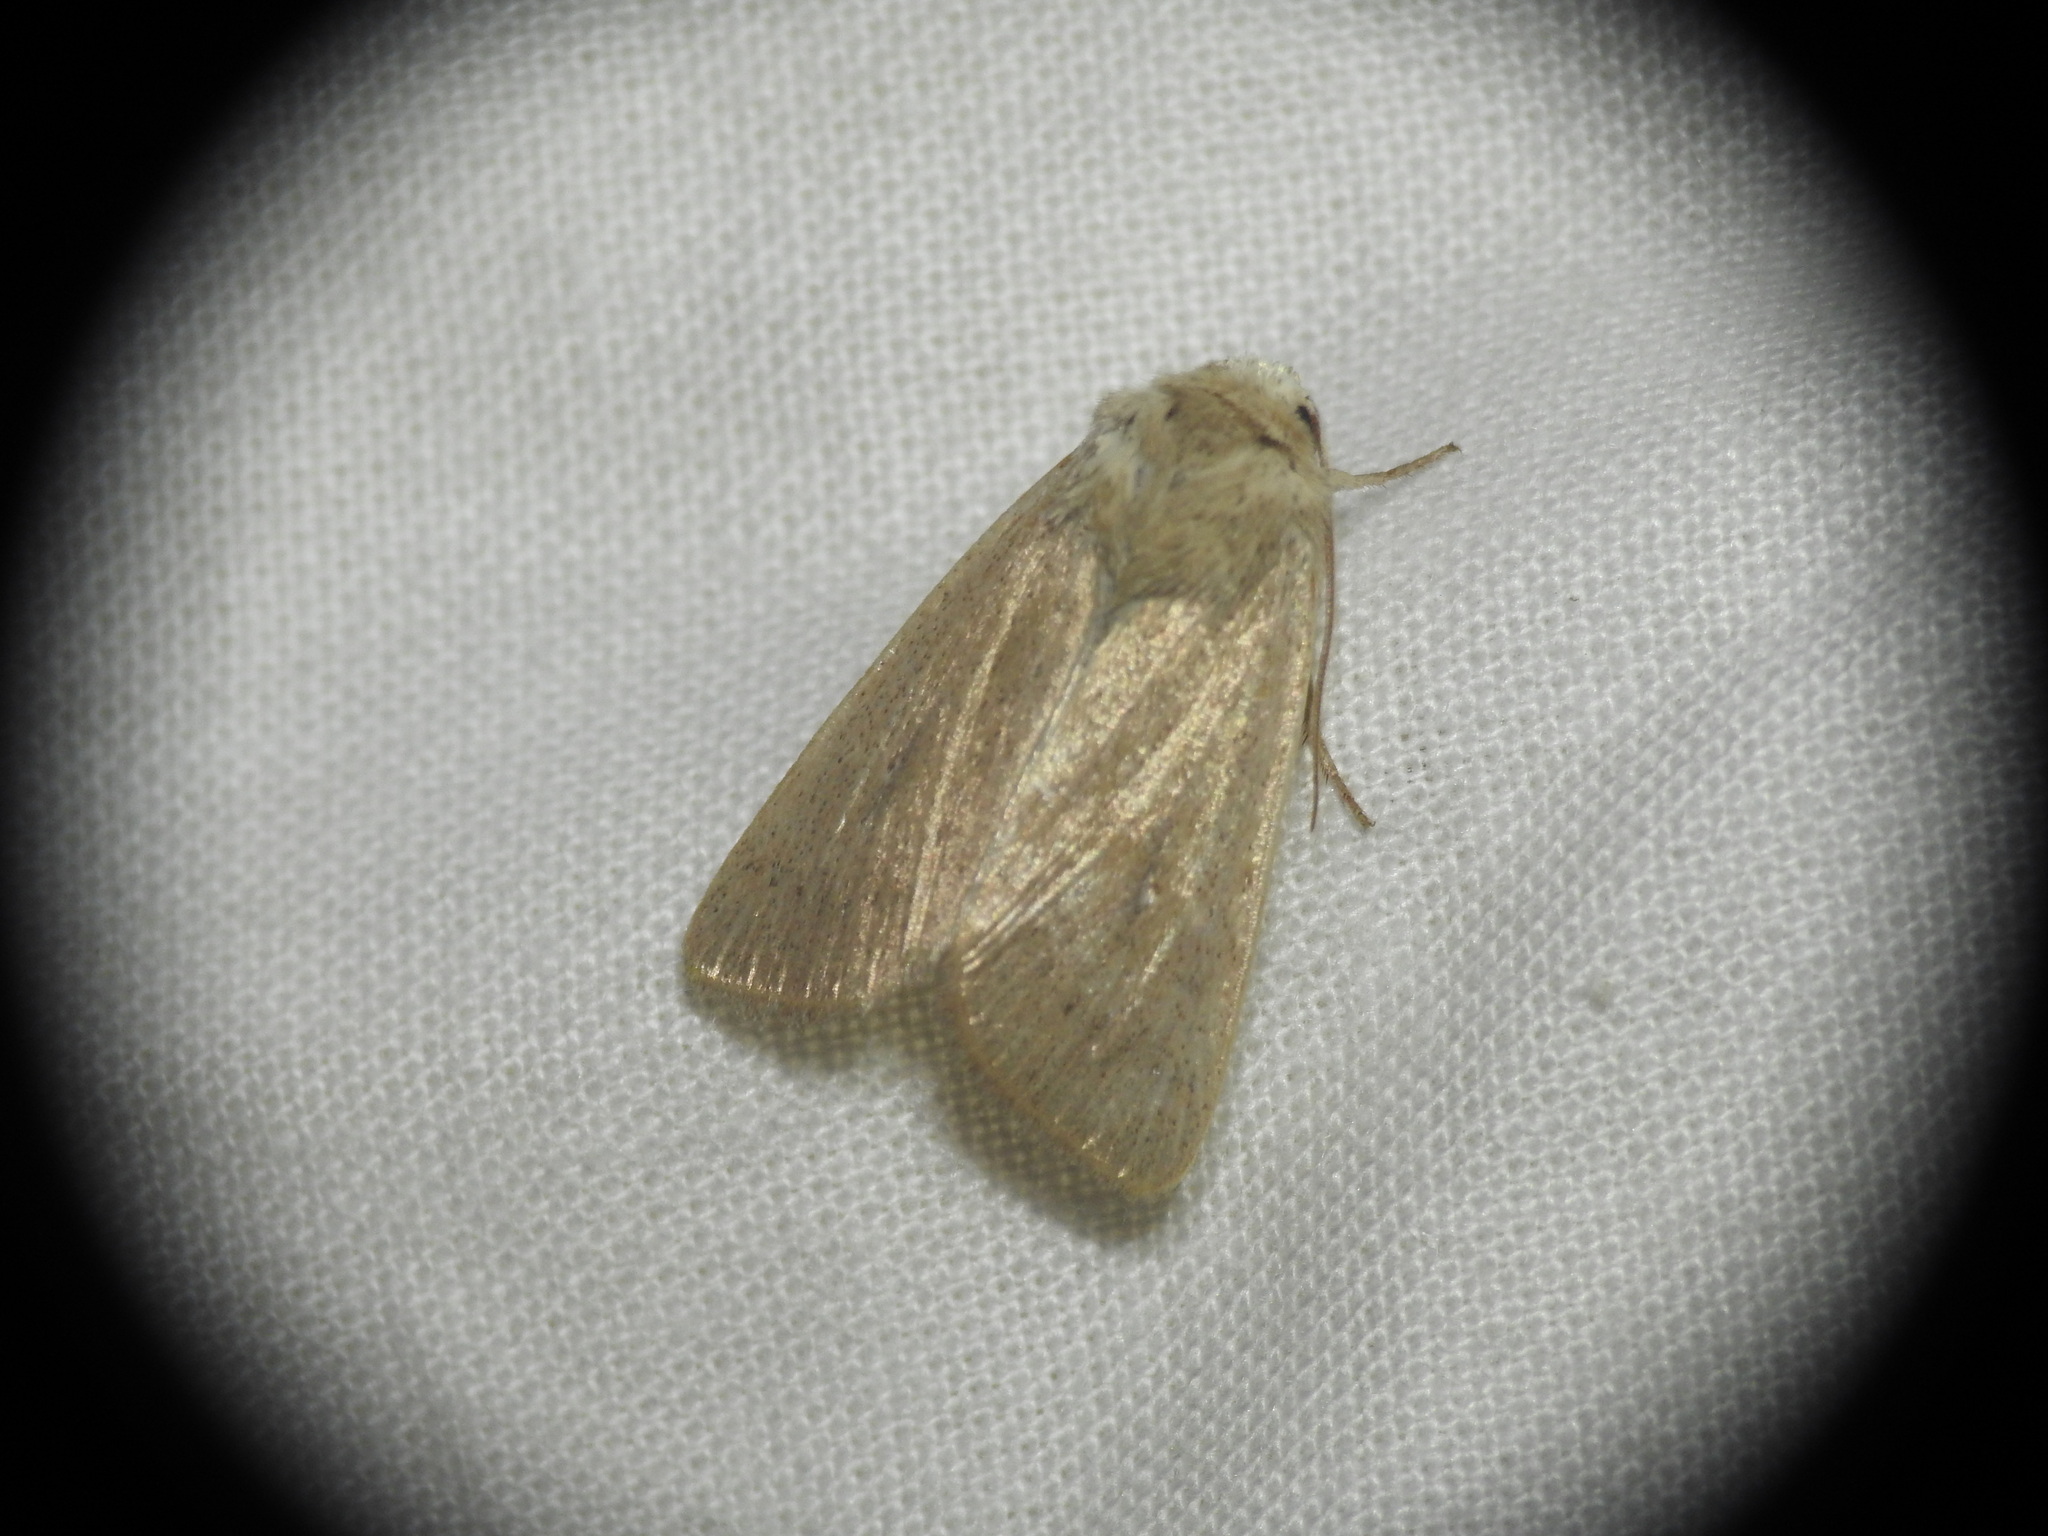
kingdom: Animalia
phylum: Arthropoda
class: Insecta
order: Lepidoptera
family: Noctuidae
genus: Mythimna
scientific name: Mythimna sicula
